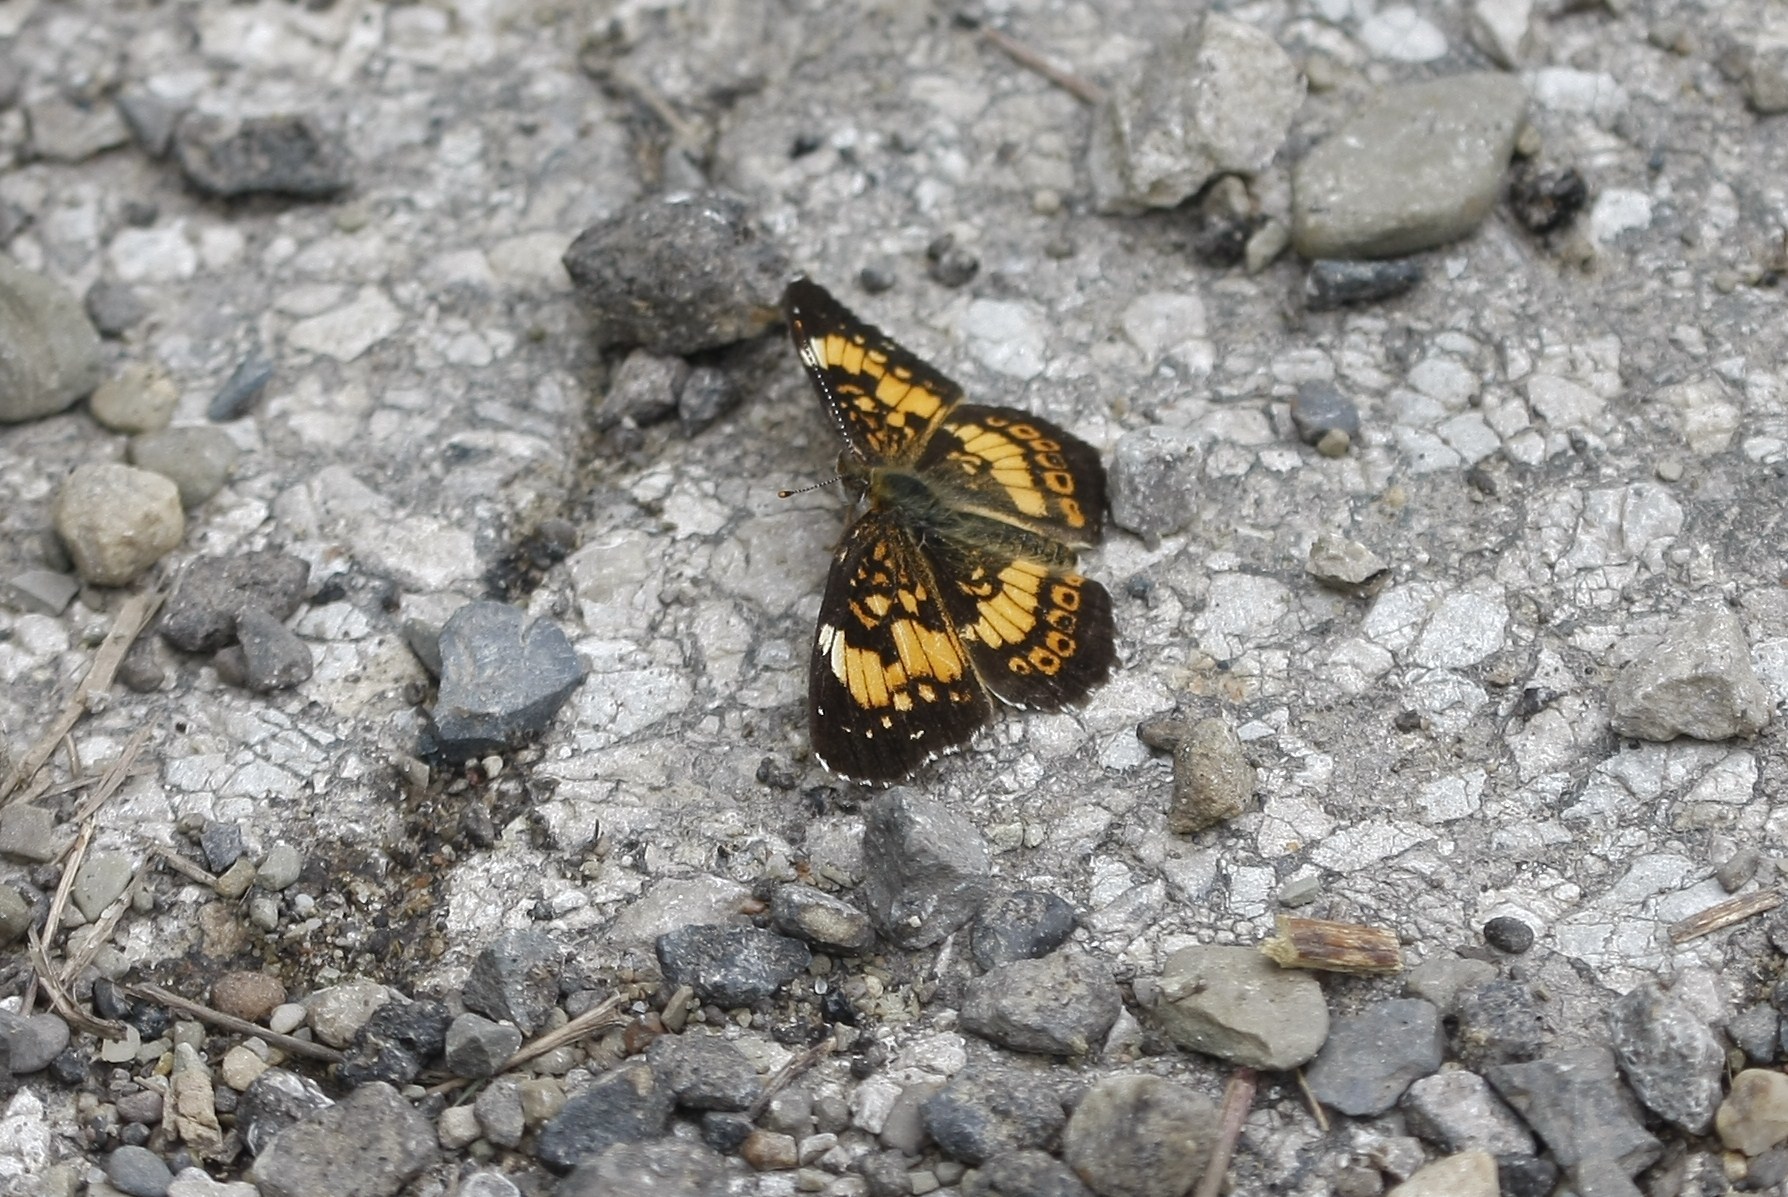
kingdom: Animalia
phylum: Arthropoda
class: Insecta
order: Lepidoptera
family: Nymphalidae
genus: Chlosyne
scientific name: Chlosyne nycteis
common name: Silvery checkerspot
